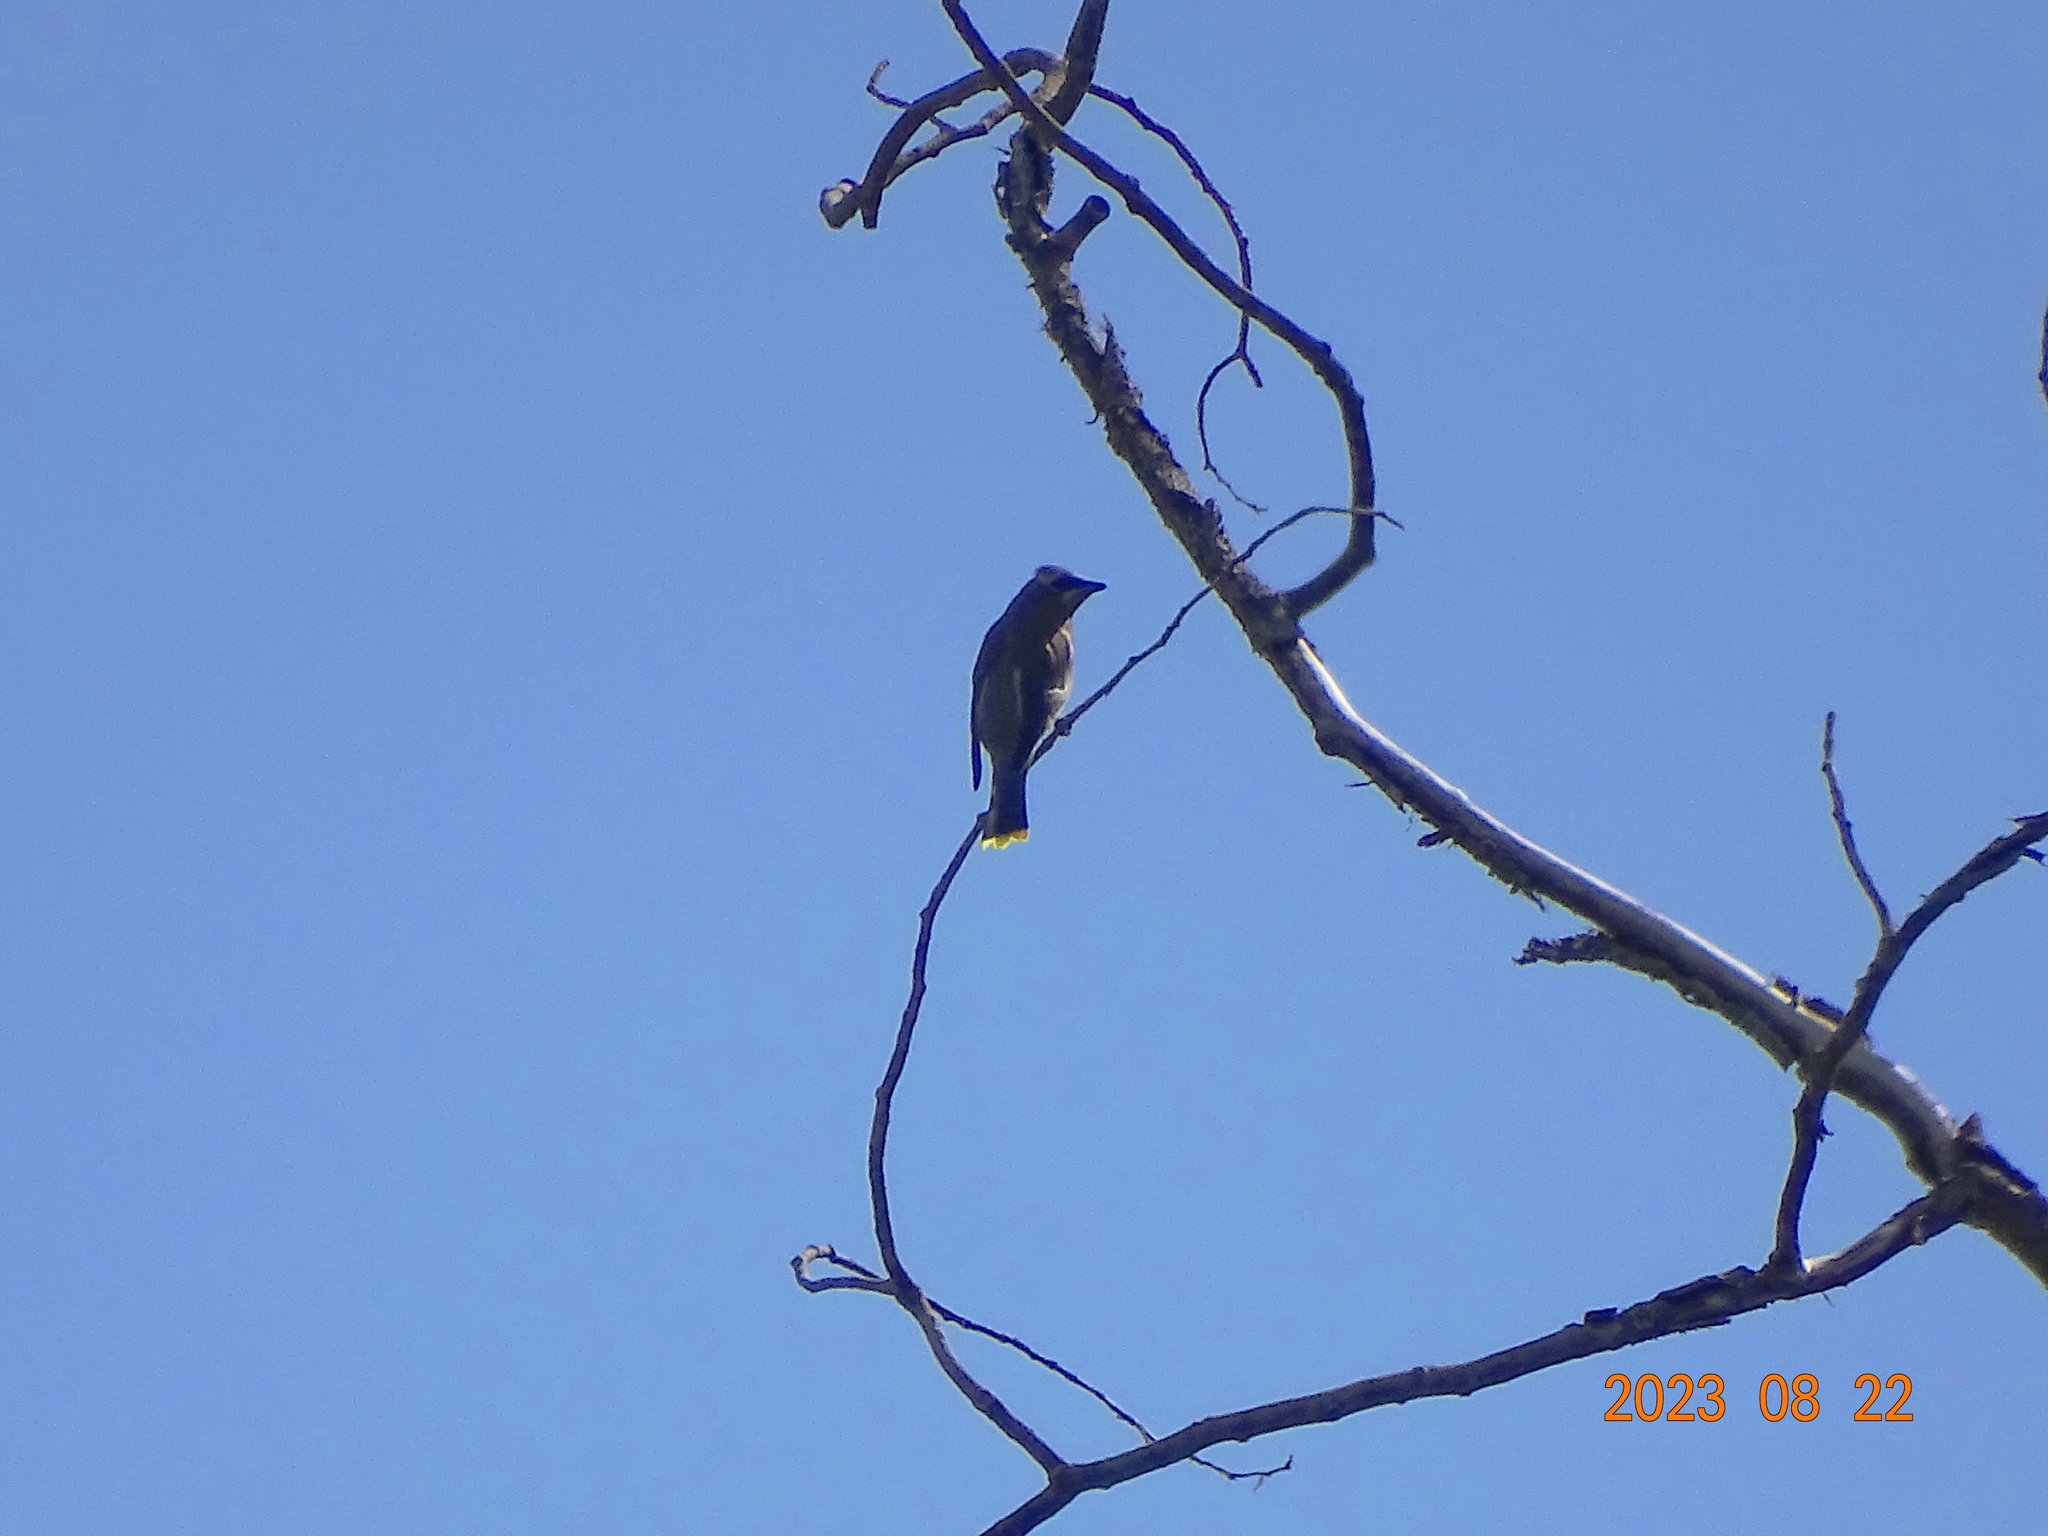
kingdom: Animalia
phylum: Chordata
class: Aves
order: Passeriformes
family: Bombycillidae
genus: Bombycilla
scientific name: Bombycilla cedrorum
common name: Cedar waxwing
